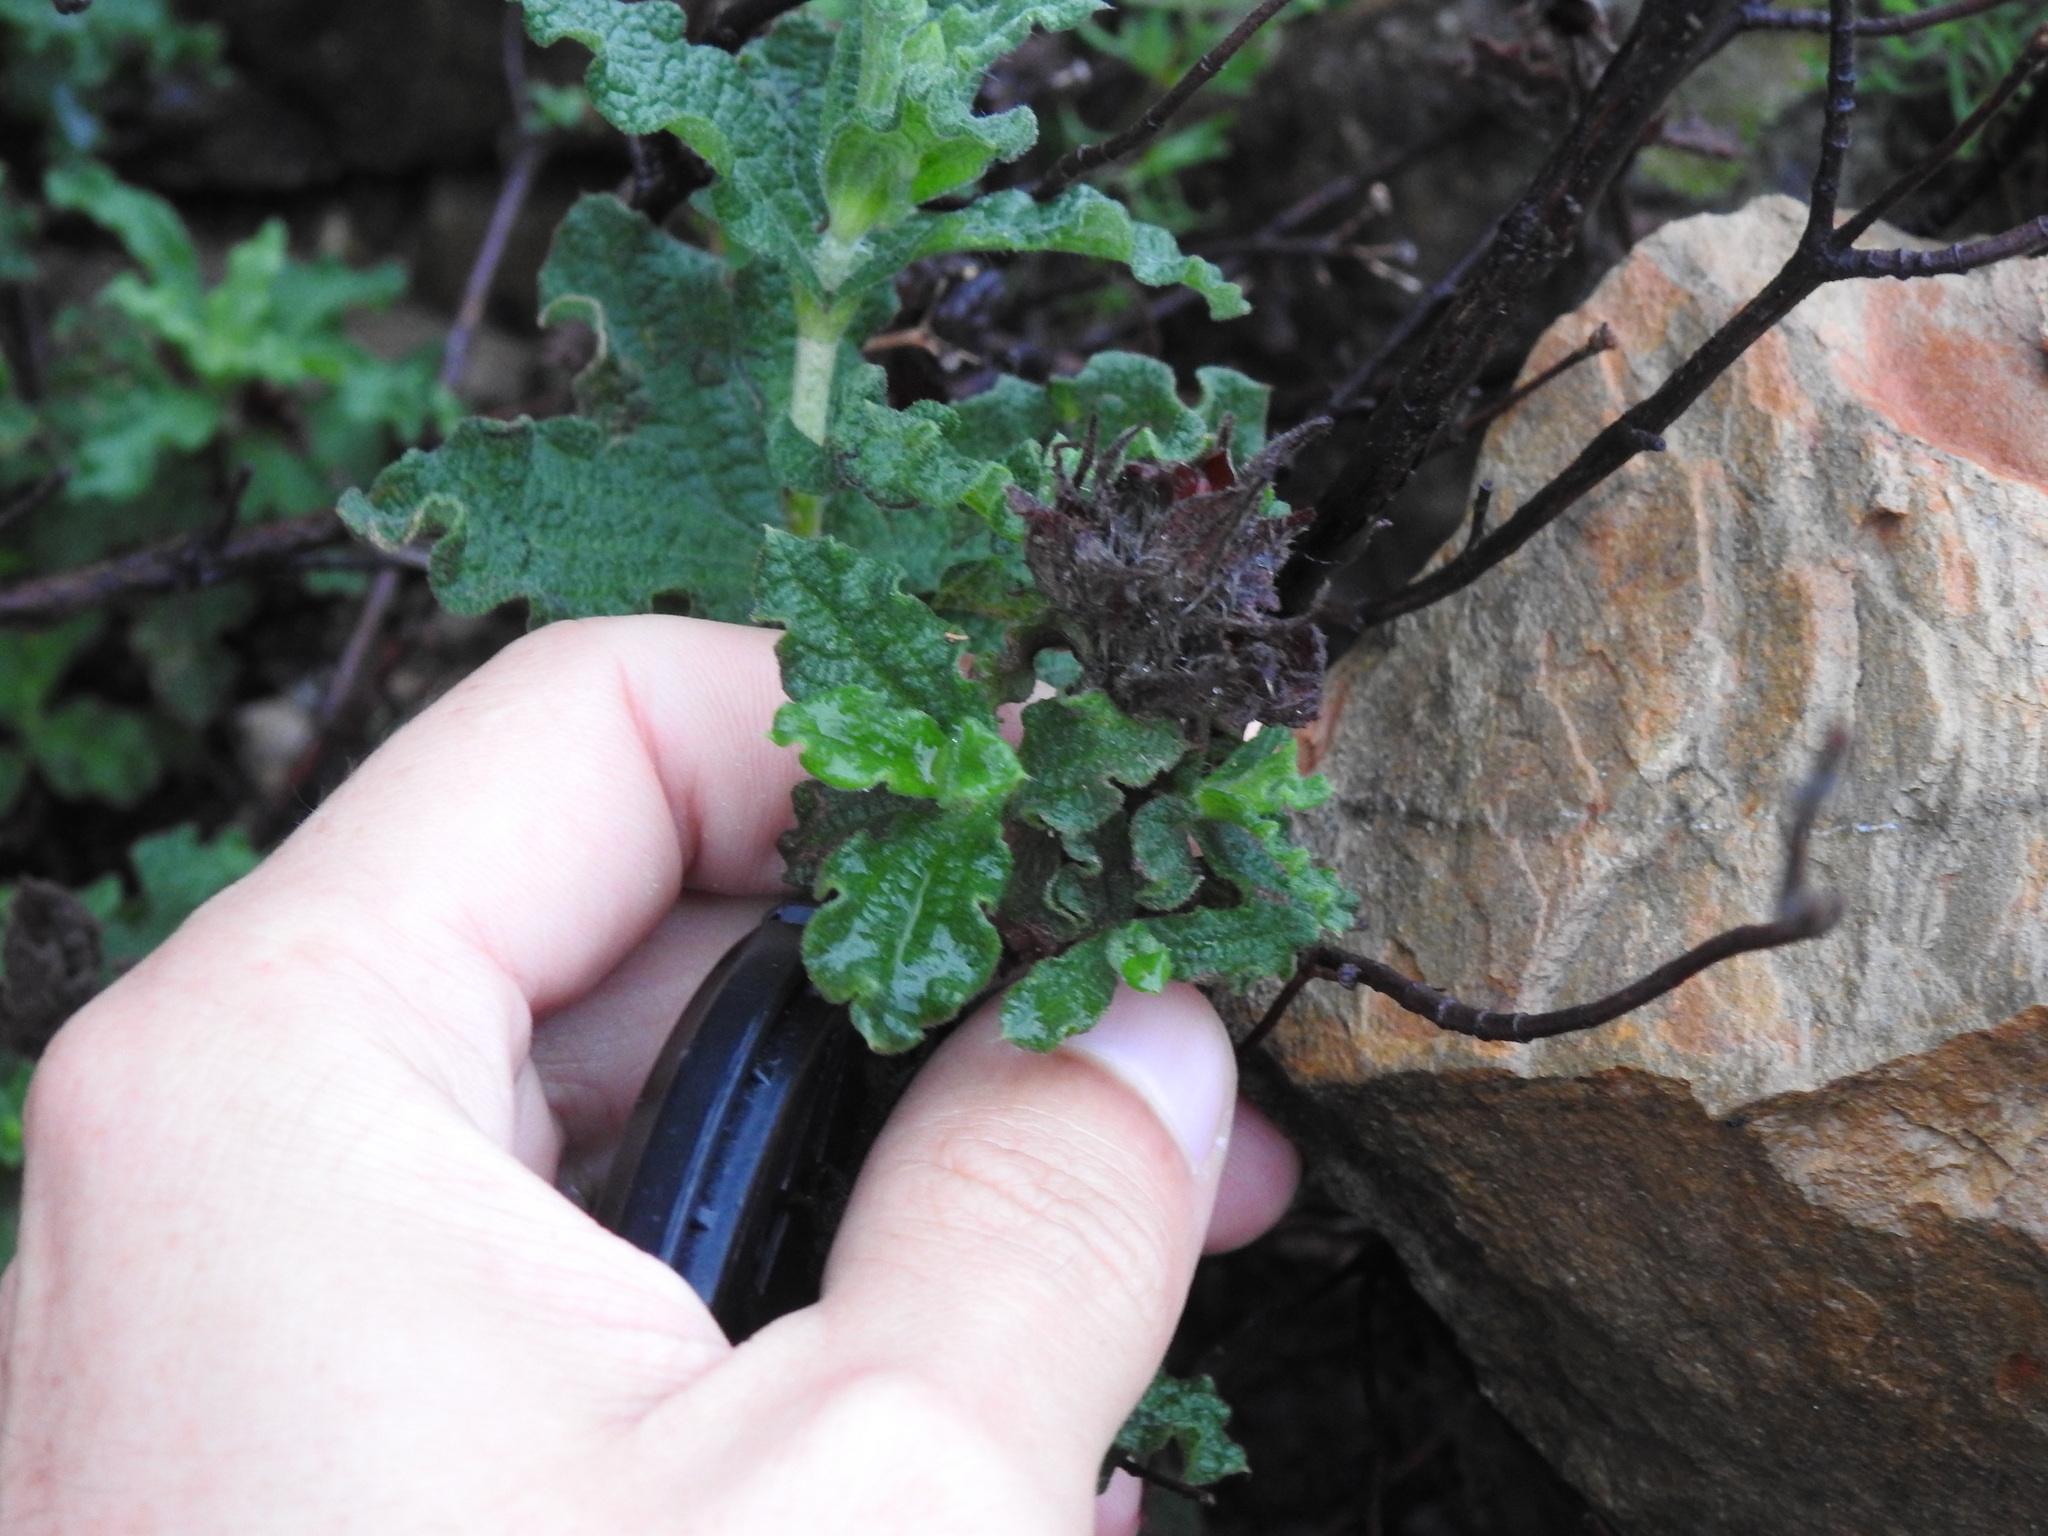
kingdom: Plantae
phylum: Tracheophyta
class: Magnoliopsida
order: Malvales
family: Cistaceae
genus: Cistus
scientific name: Cistus crispus
